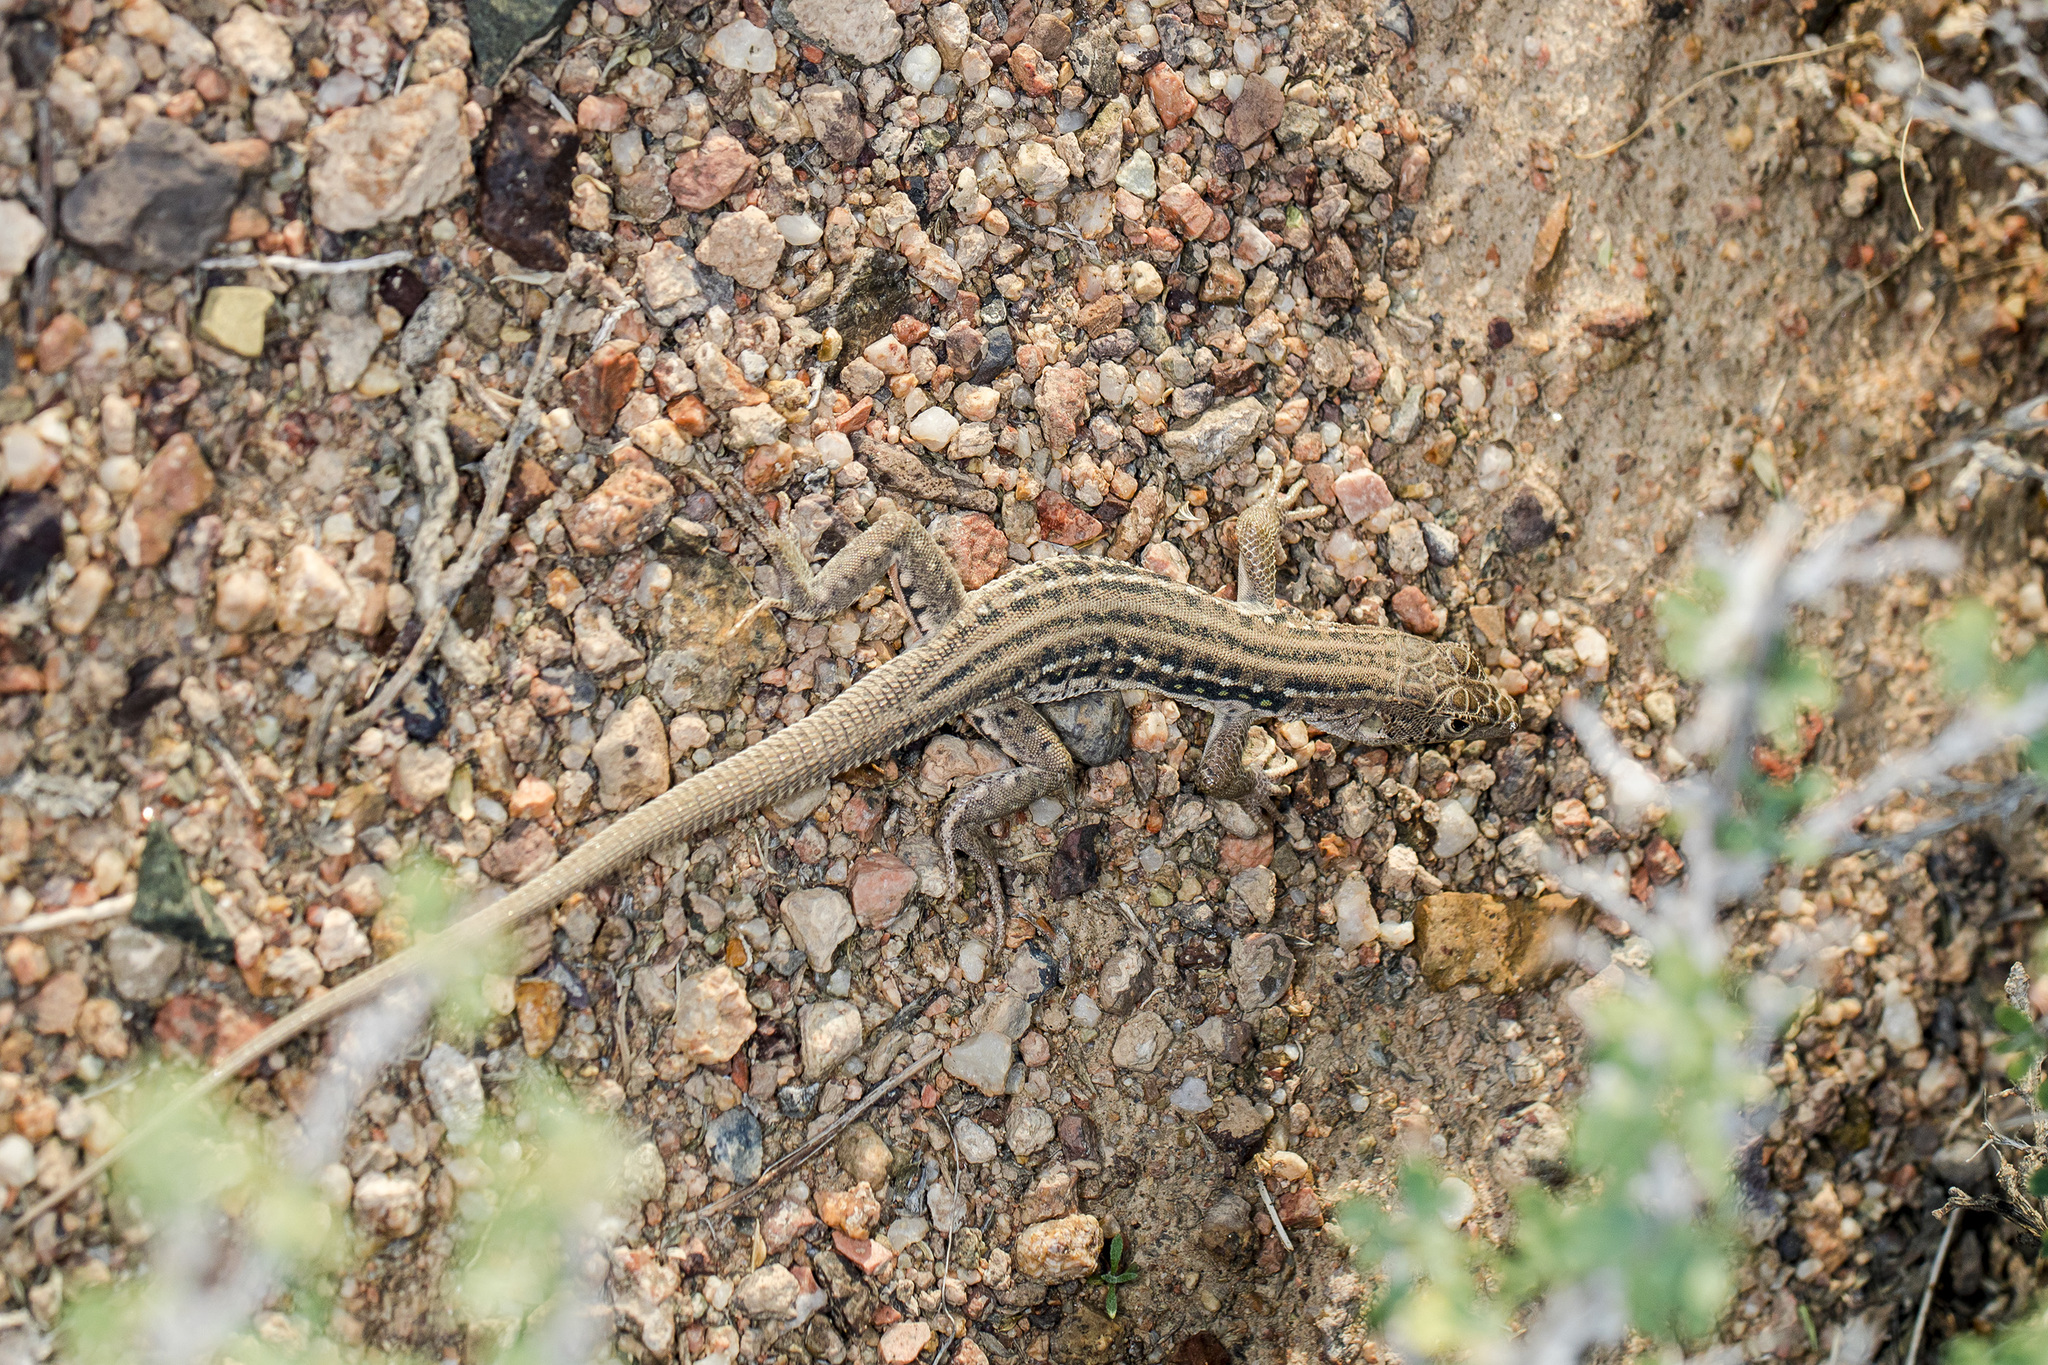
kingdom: Animalia
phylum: Chordata
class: Squamata
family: Lacertidae
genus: Eremias
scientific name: Eremias velox
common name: Central asian racerunner
